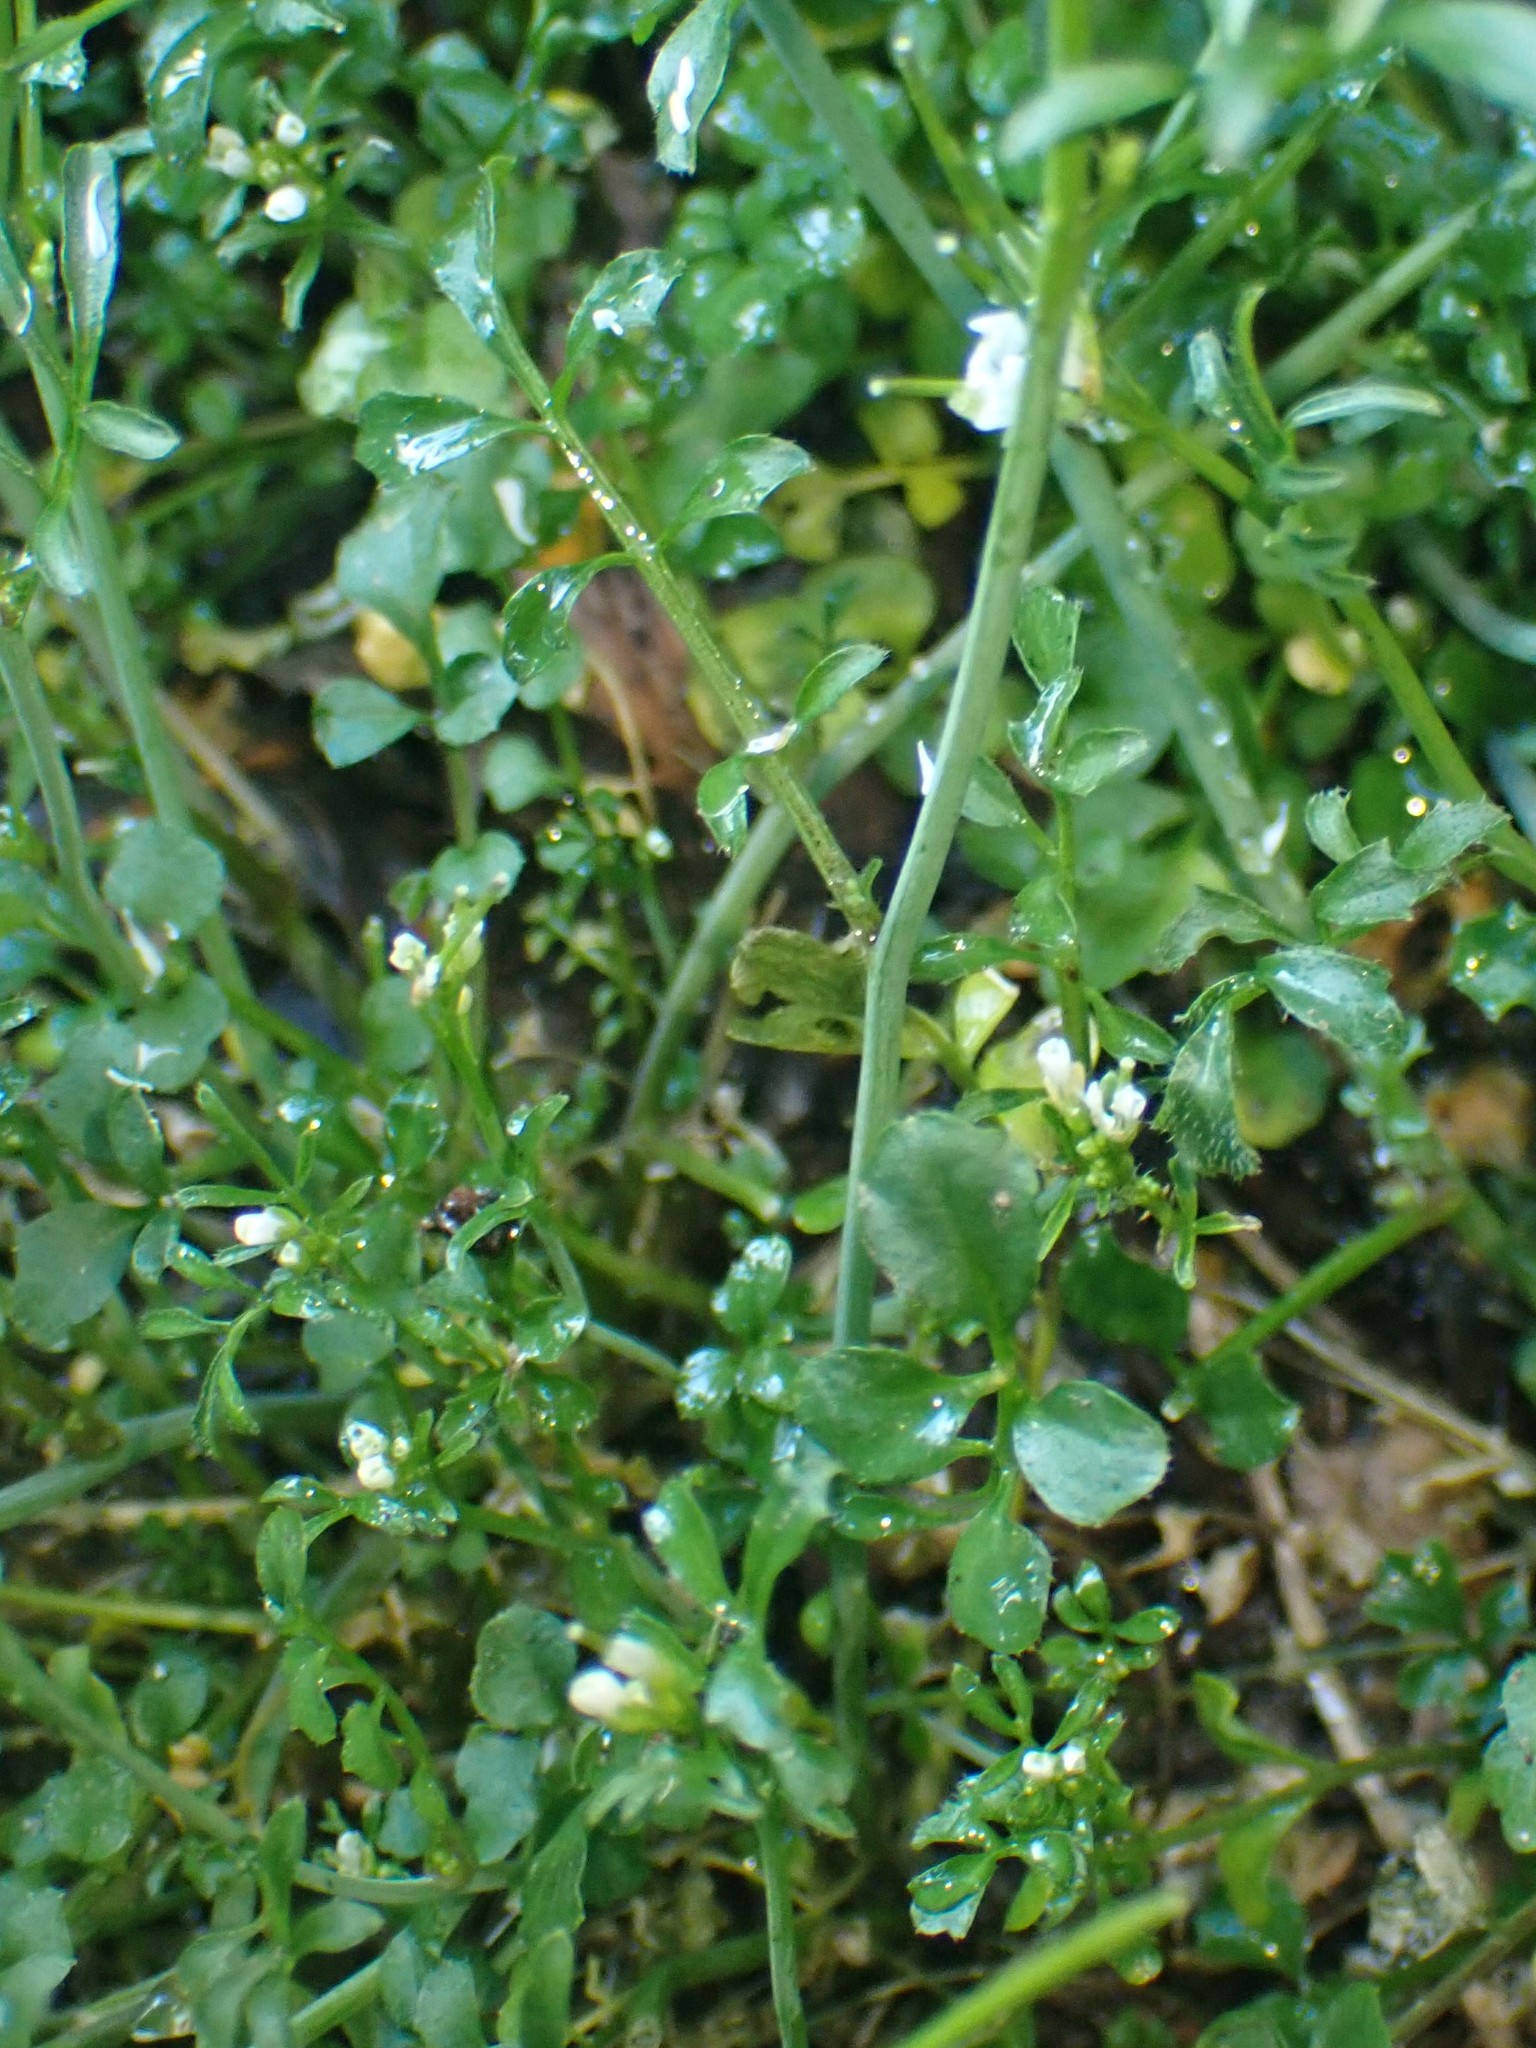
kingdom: Plantae
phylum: Tracheophyta
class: Magnoliopsida
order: Brassicales
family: Brassicaceae
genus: Cardamine
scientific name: Cardamine hirsuta
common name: Hairy bittercress
